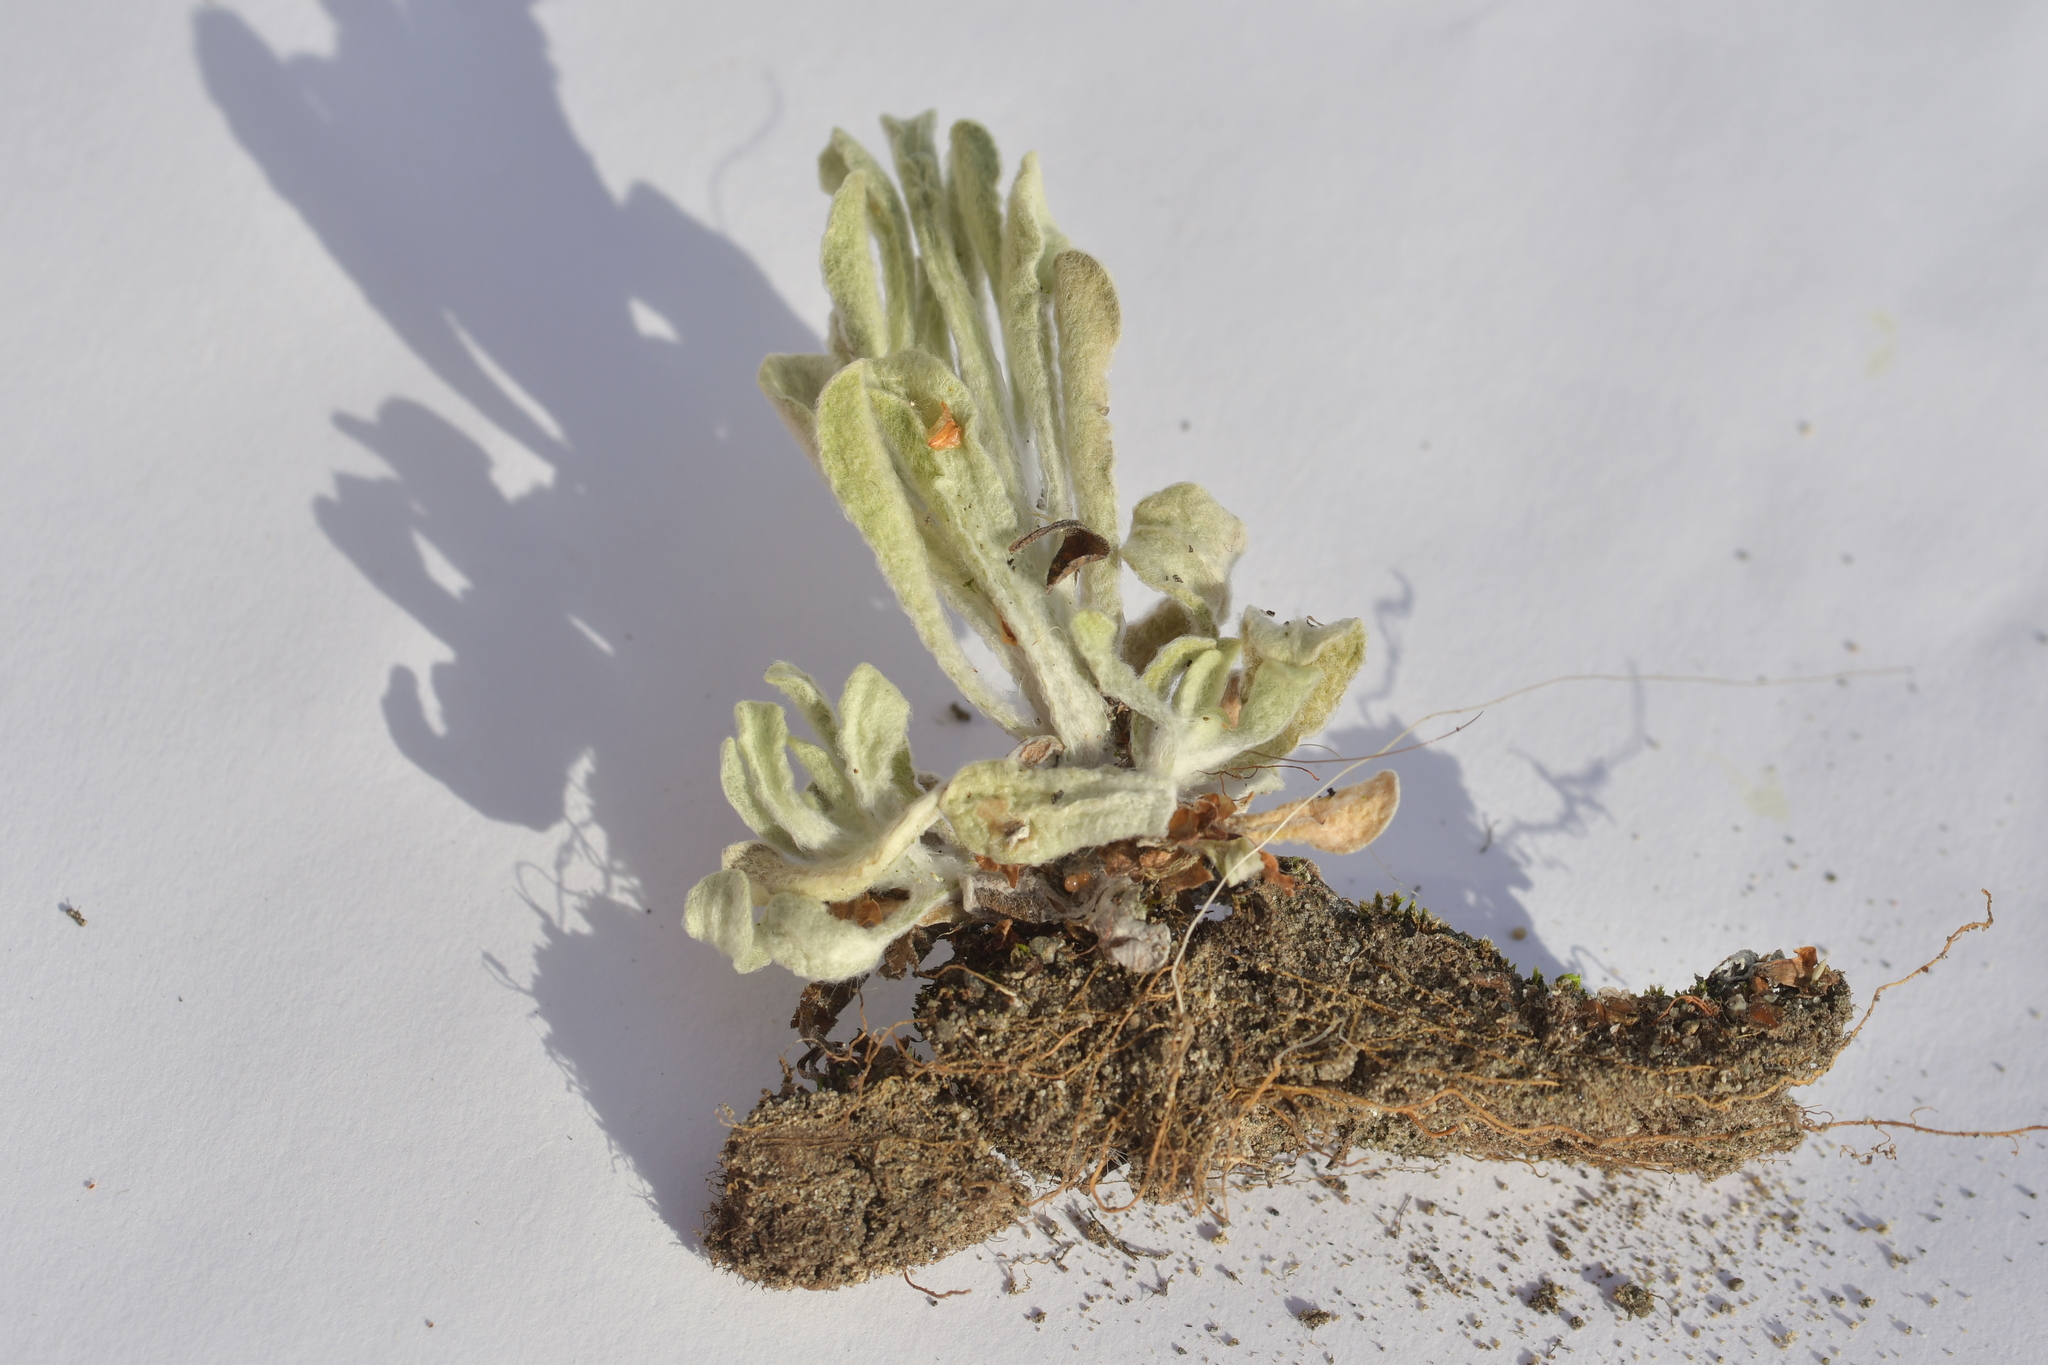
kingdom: Plantae
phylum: Tracheophyta
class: Magnoliopsida
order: Asterales
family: Asteraceae
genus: Helichrysum
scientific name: Helichrysum luteoalbum
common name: Daisy
